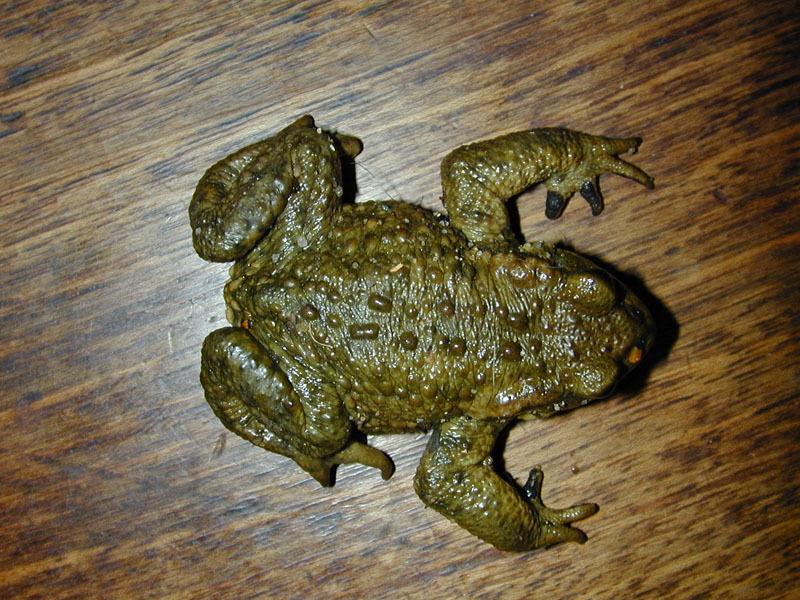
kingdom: Animalia
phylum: Chordata
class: Amphibia
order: Anura
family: Bufonidae
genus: Bufo
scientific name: Bufo spinosus
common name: Western common toad
